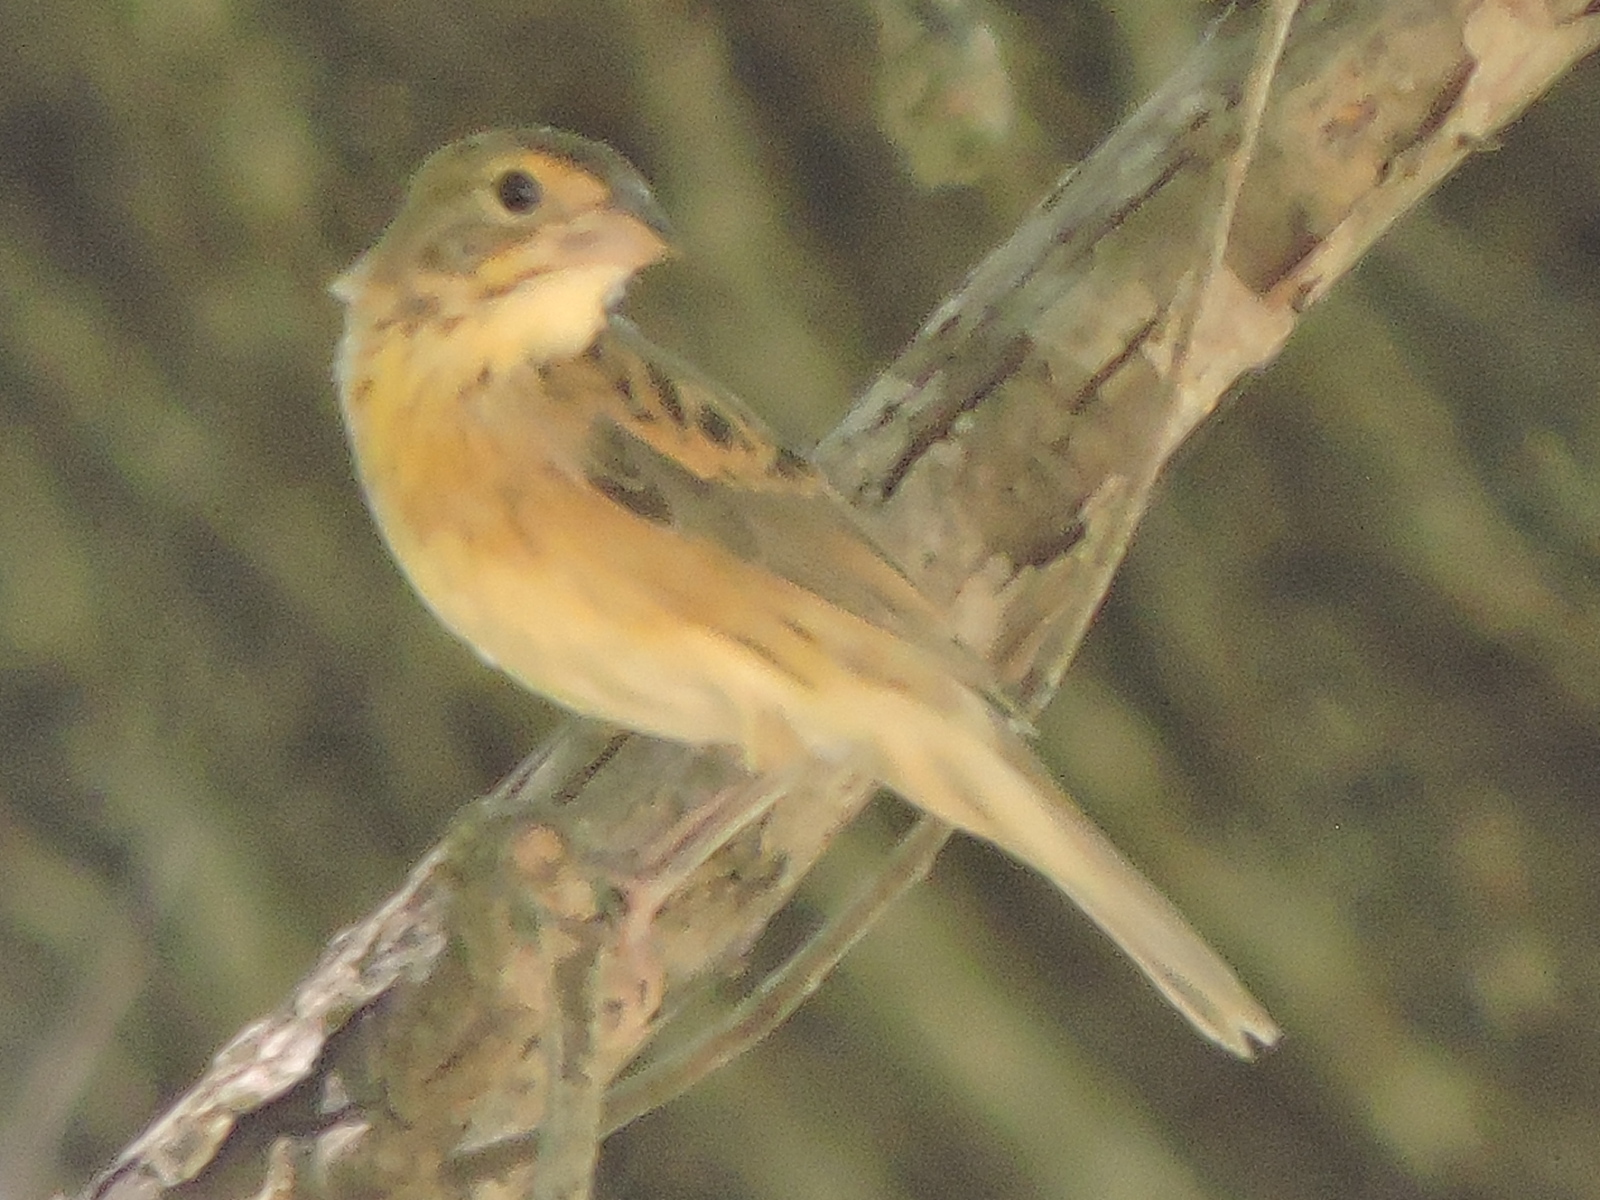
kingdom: Animalia
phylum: Chordata
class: Aves
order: Passeriformes
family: Cardinalidae
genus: Spiza
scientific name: Spiza americana
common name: Dickcissel
